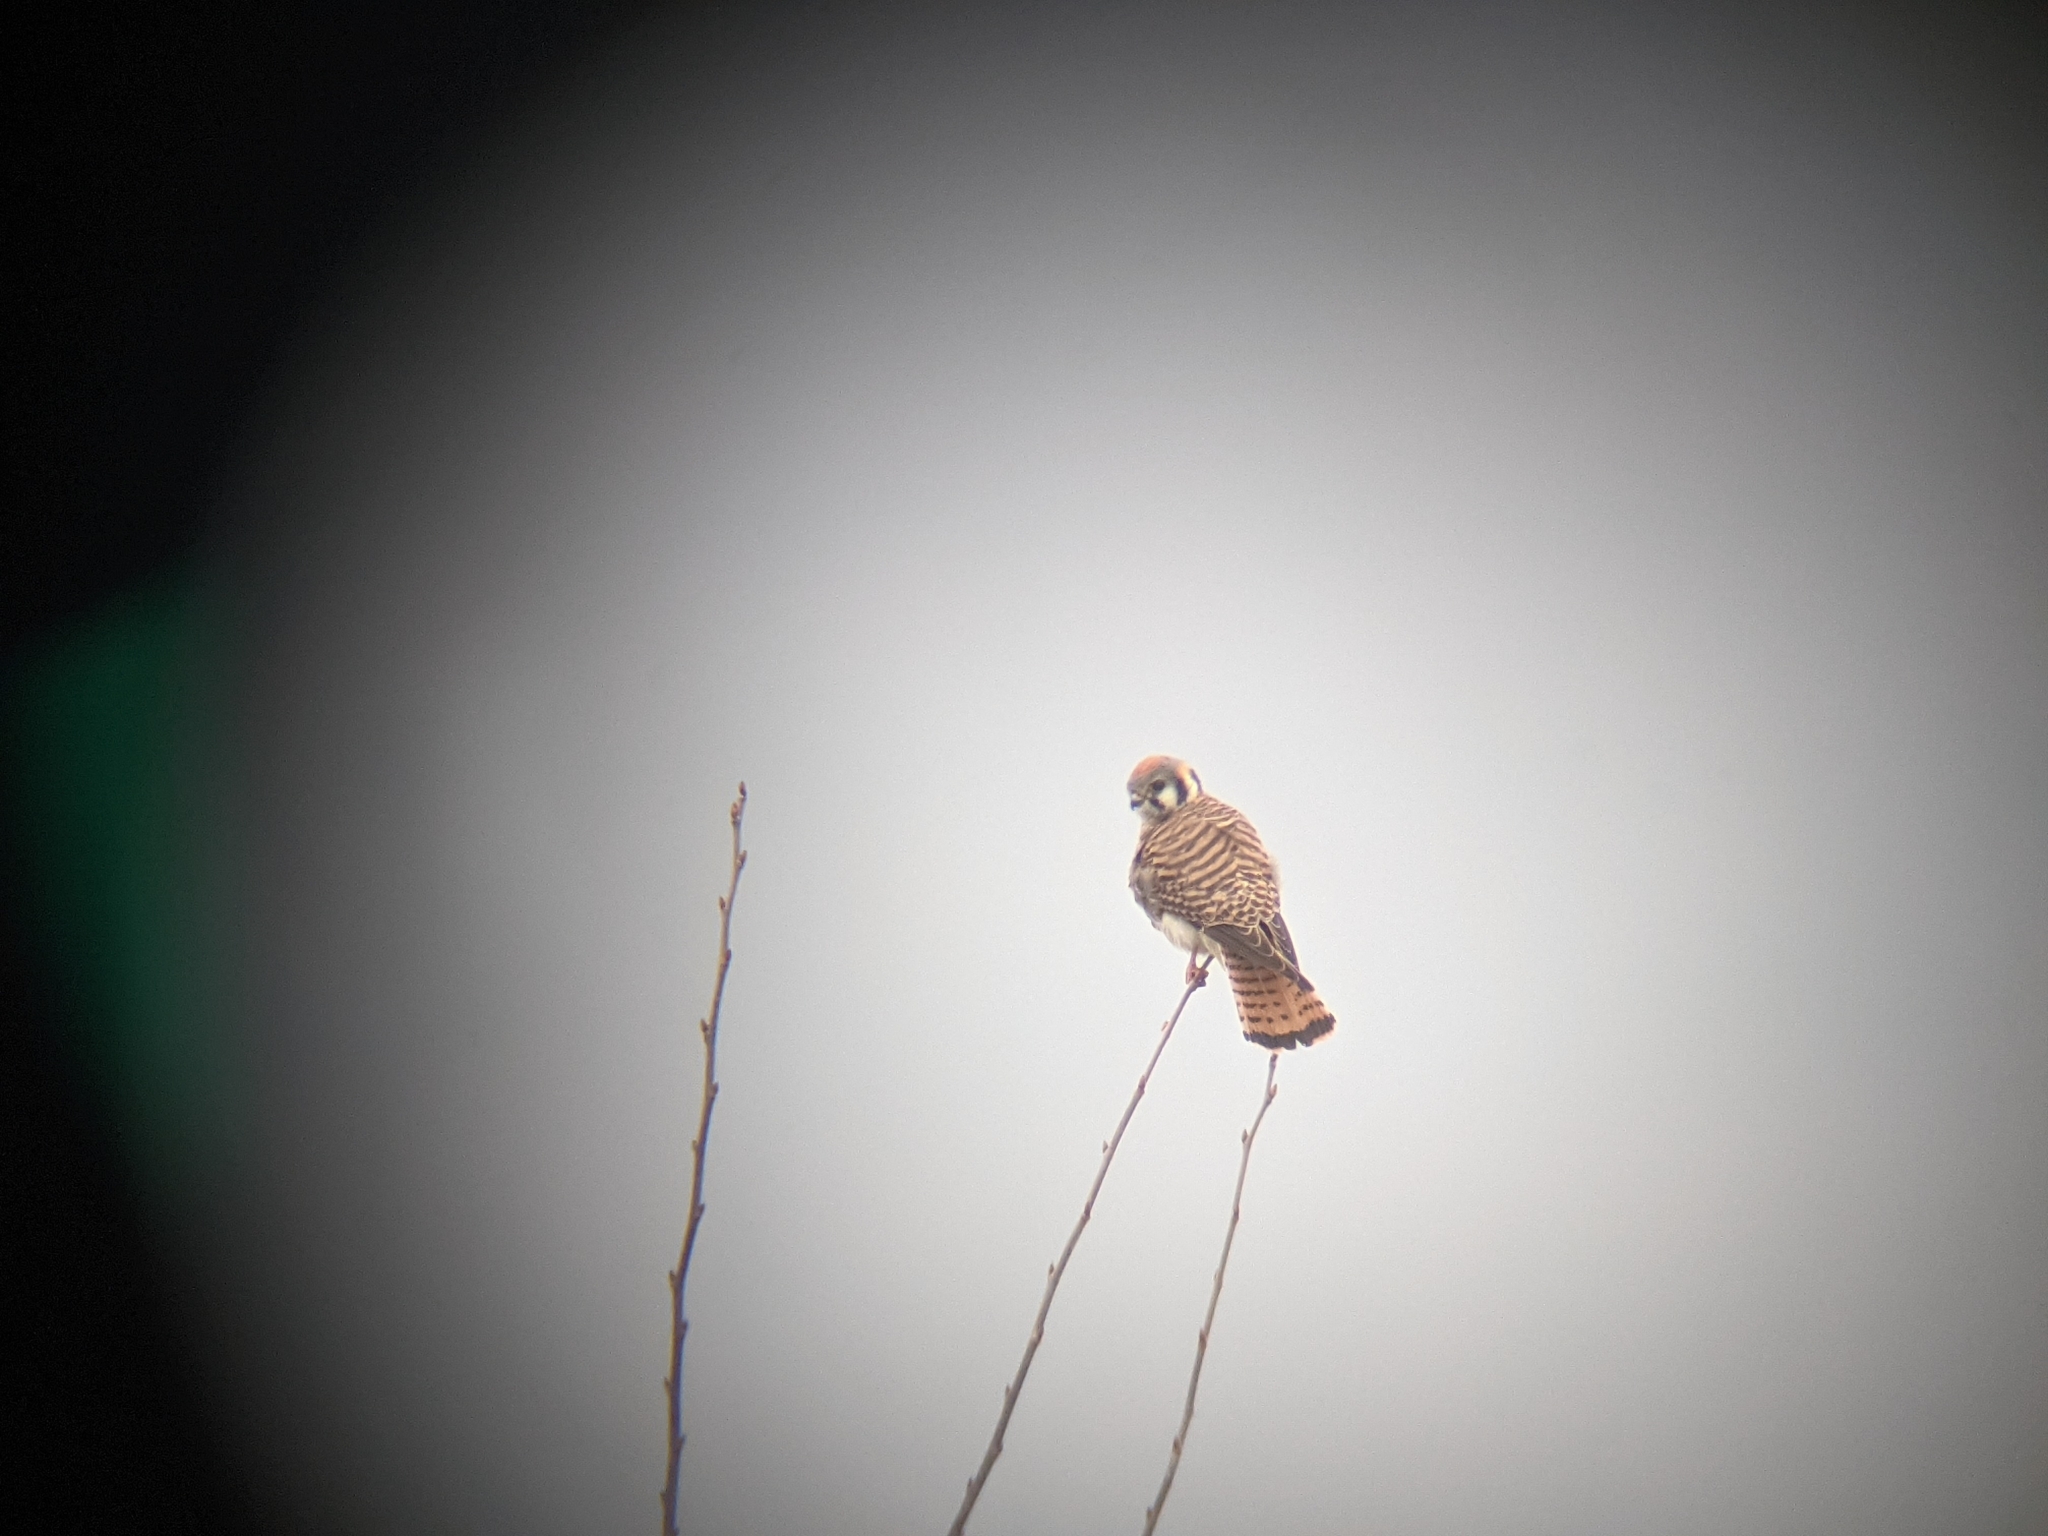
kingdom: Animalia
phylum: Chordata
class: Aves
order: Falconiformes
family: Falconidae
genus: Falco
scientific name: Falco sparverius
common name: American kestrel
